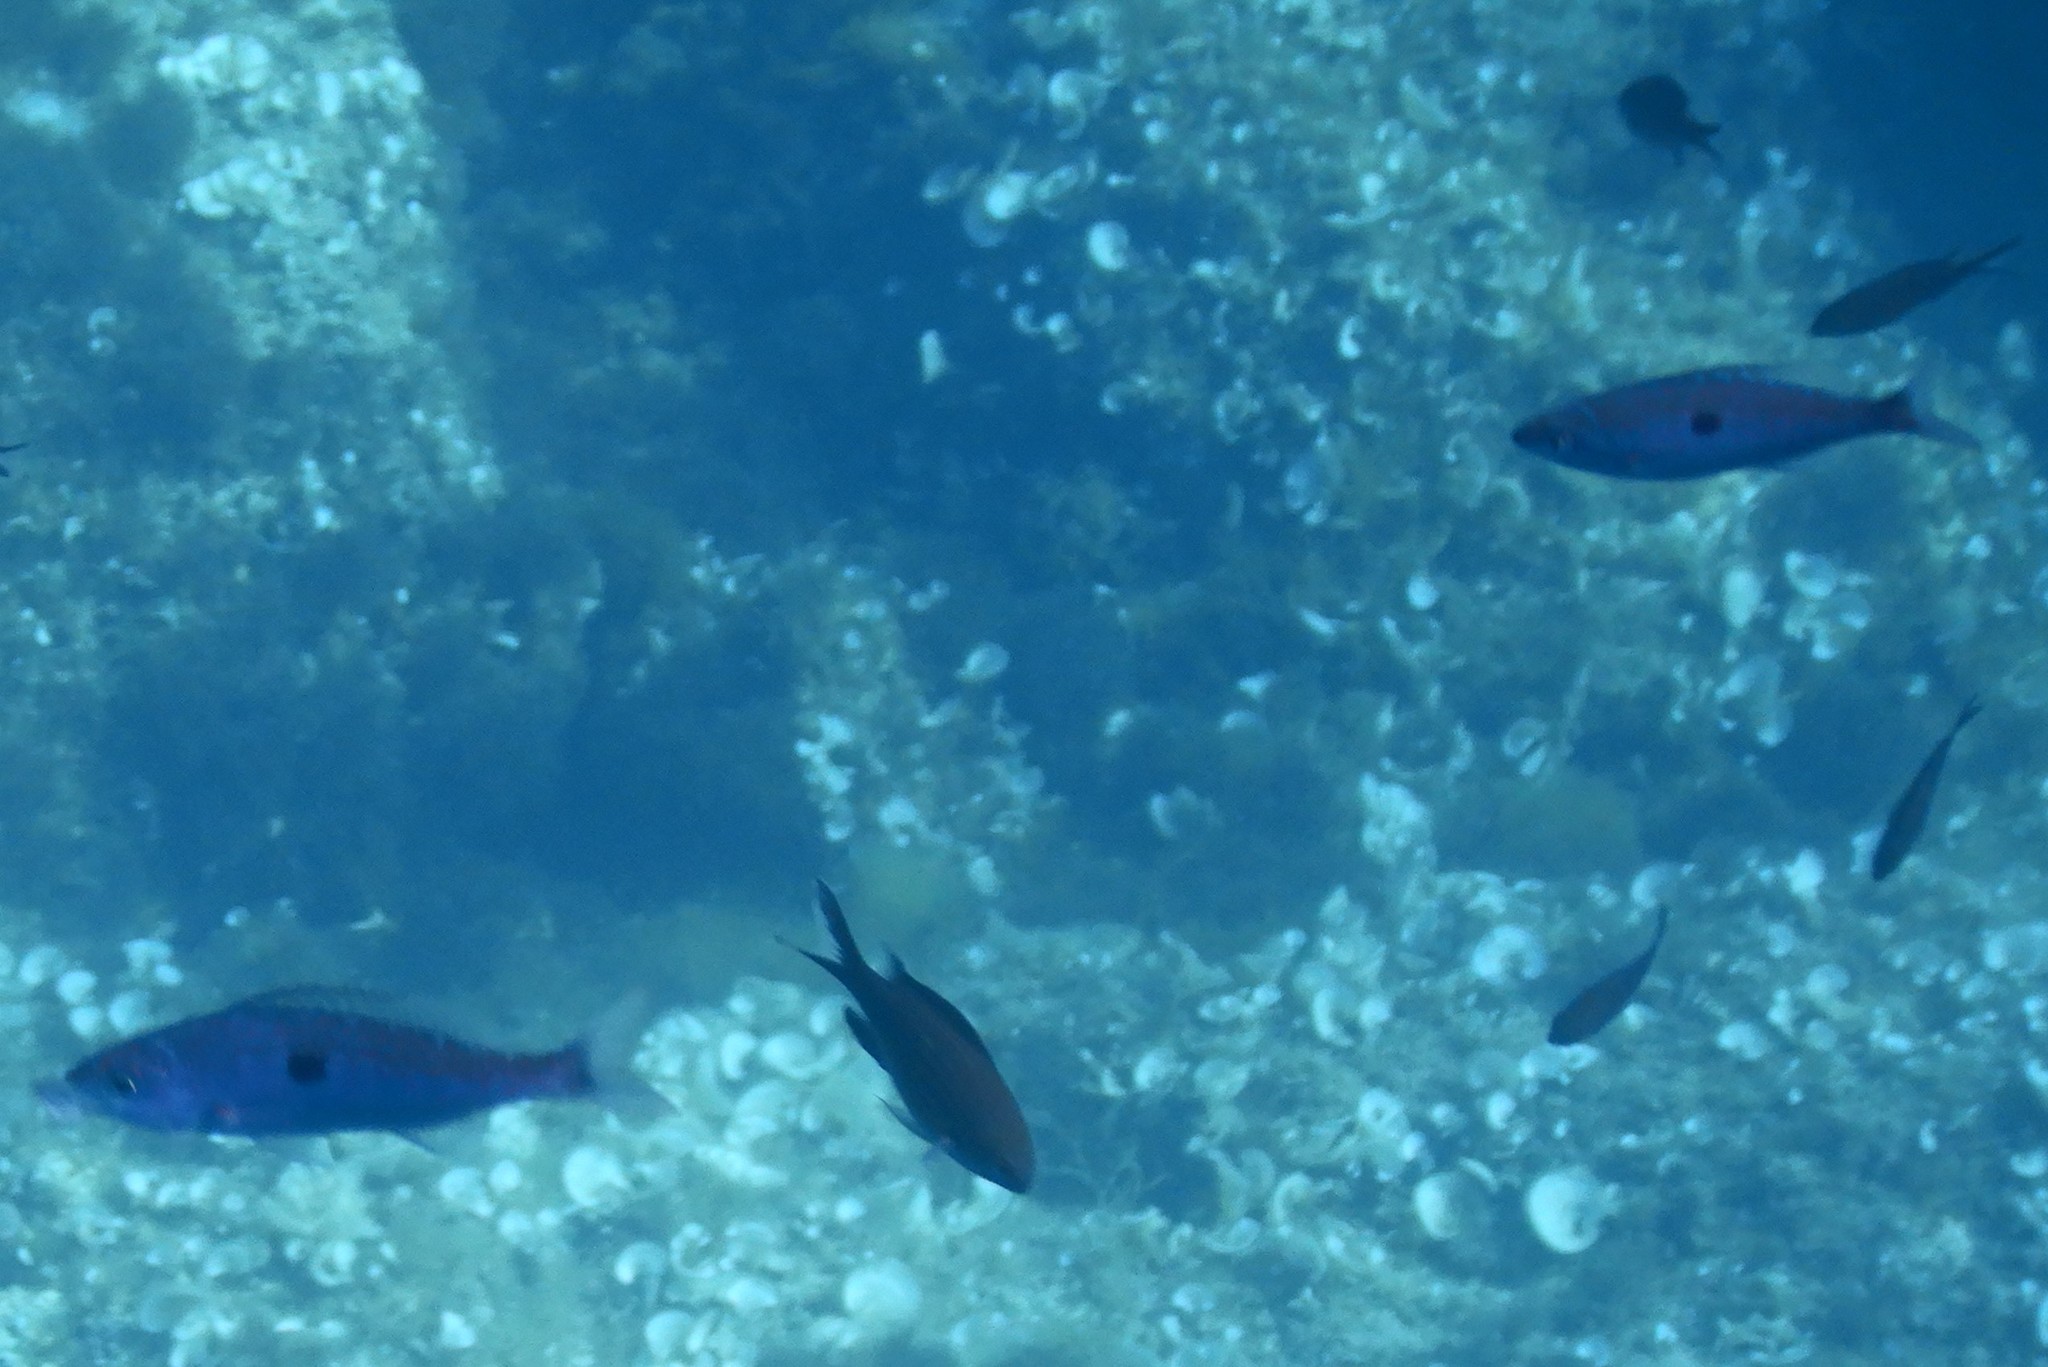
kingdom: Animalia
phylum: Chordata
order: Perciformes
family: Sparidae
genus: Spicara
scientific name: Spicara
